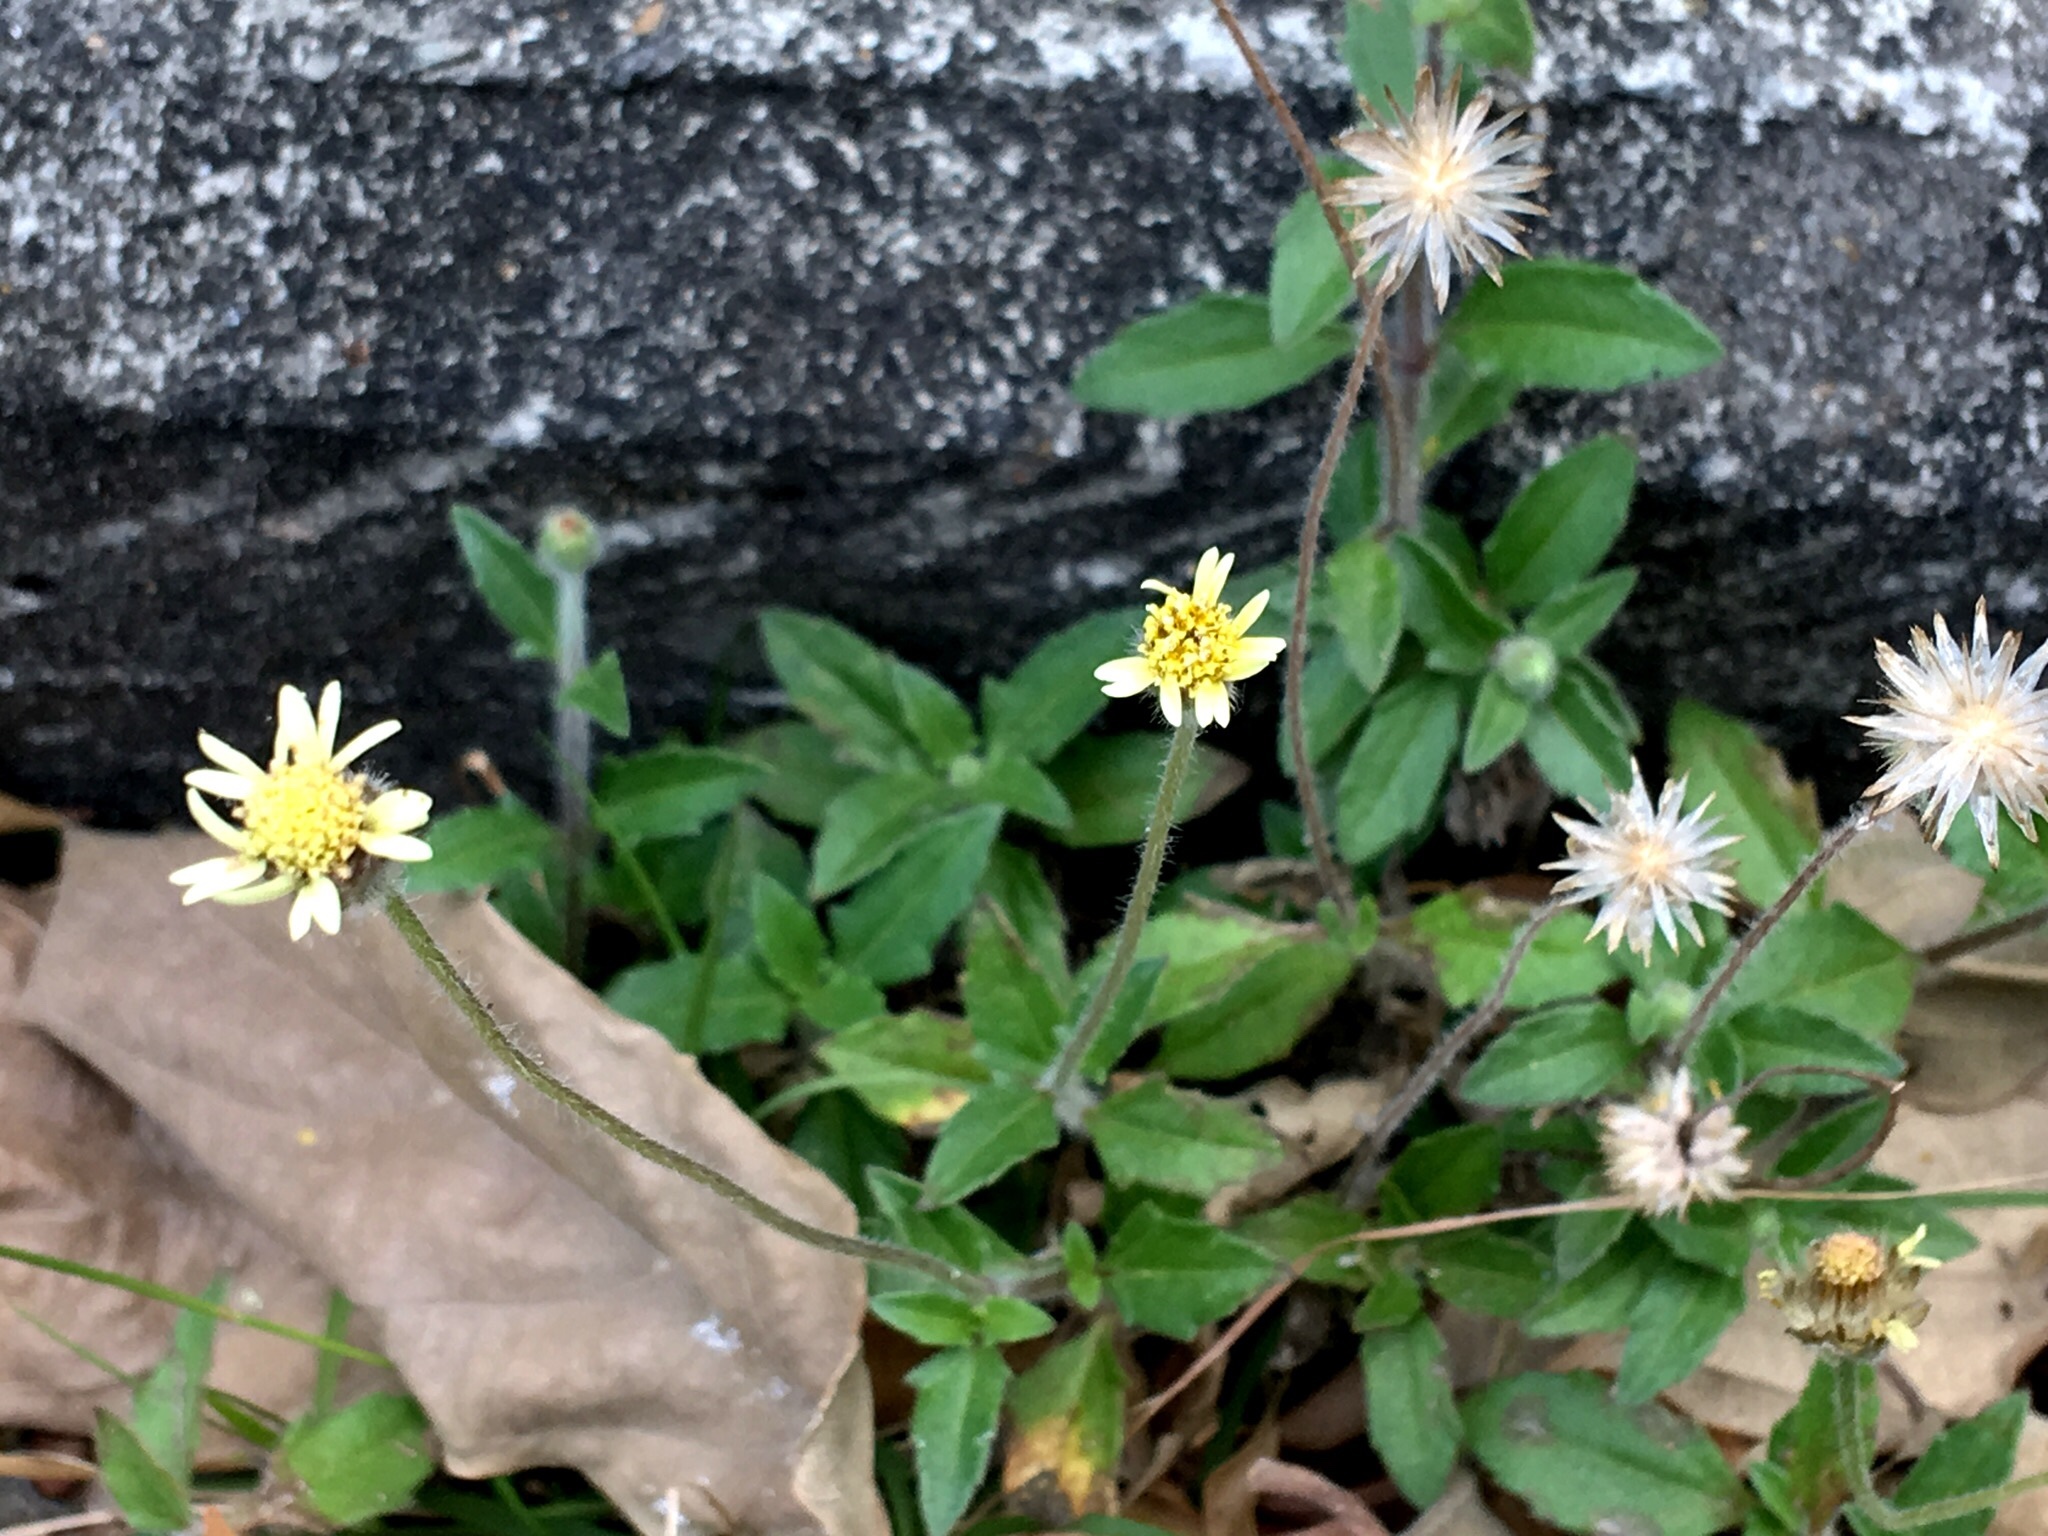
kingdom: Plantae
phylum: Tracheophyta
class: Magnoliopsida
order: Asterales
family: Asteraceae
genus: Tridax
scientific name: Tridax procumbens
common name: Coatbuttons
